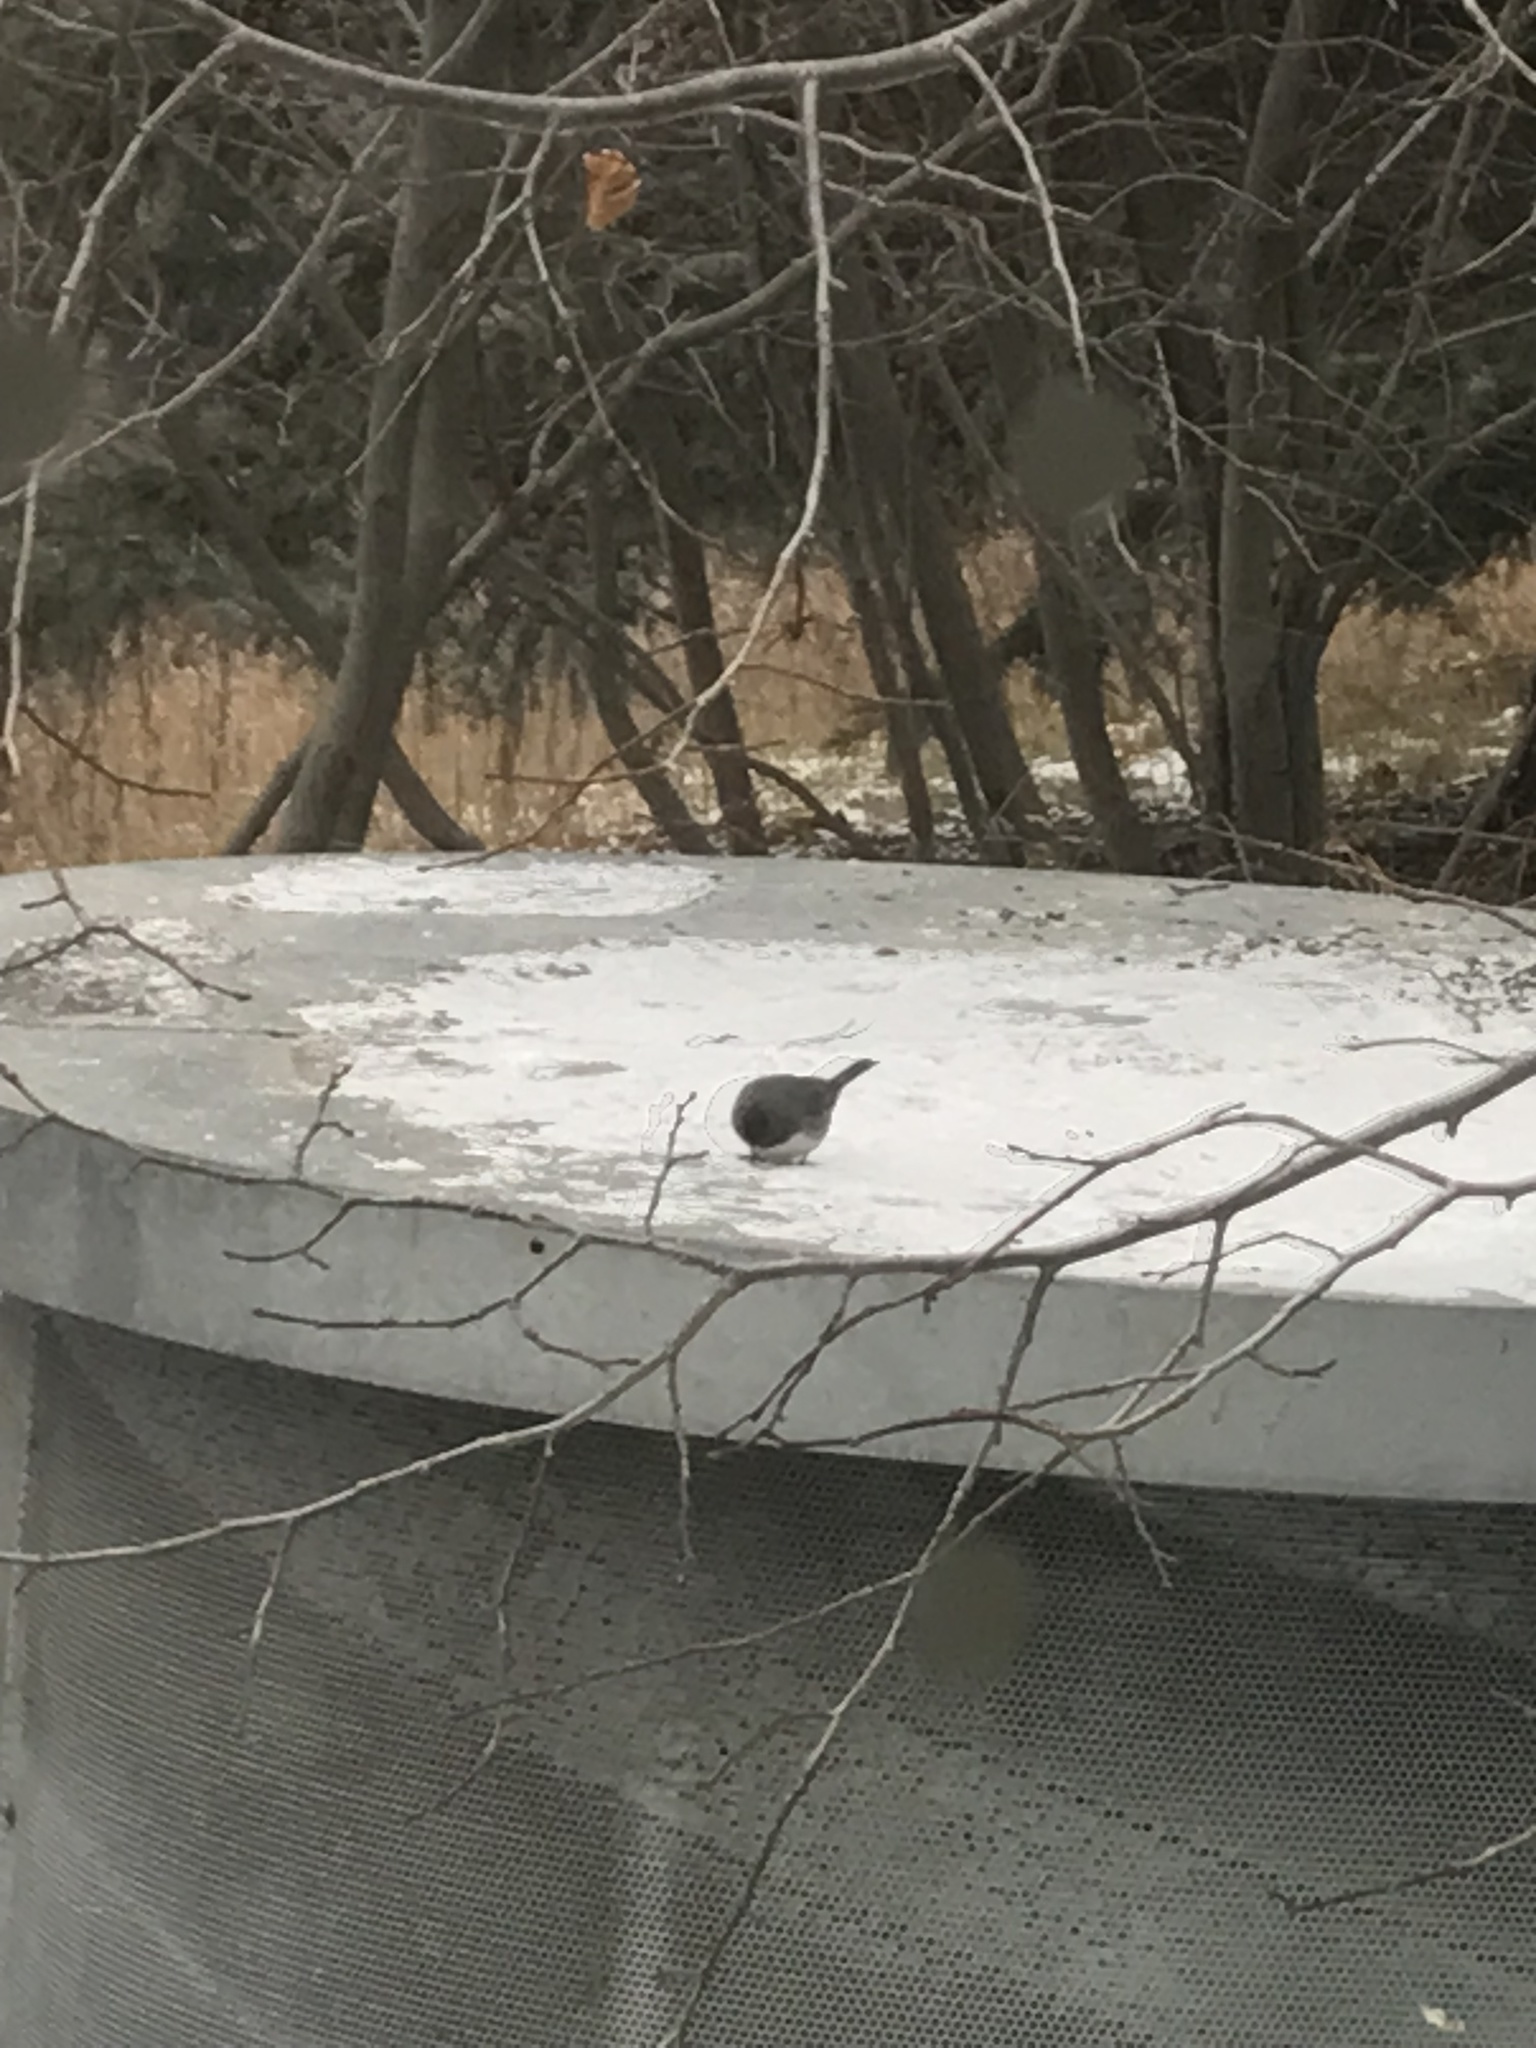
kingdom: Animalia
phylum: Chordata
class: Aves
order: Passeriformes
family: Passerellidae
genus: Junco
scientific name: Junco hyemalis
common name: Dark-eyed junco
